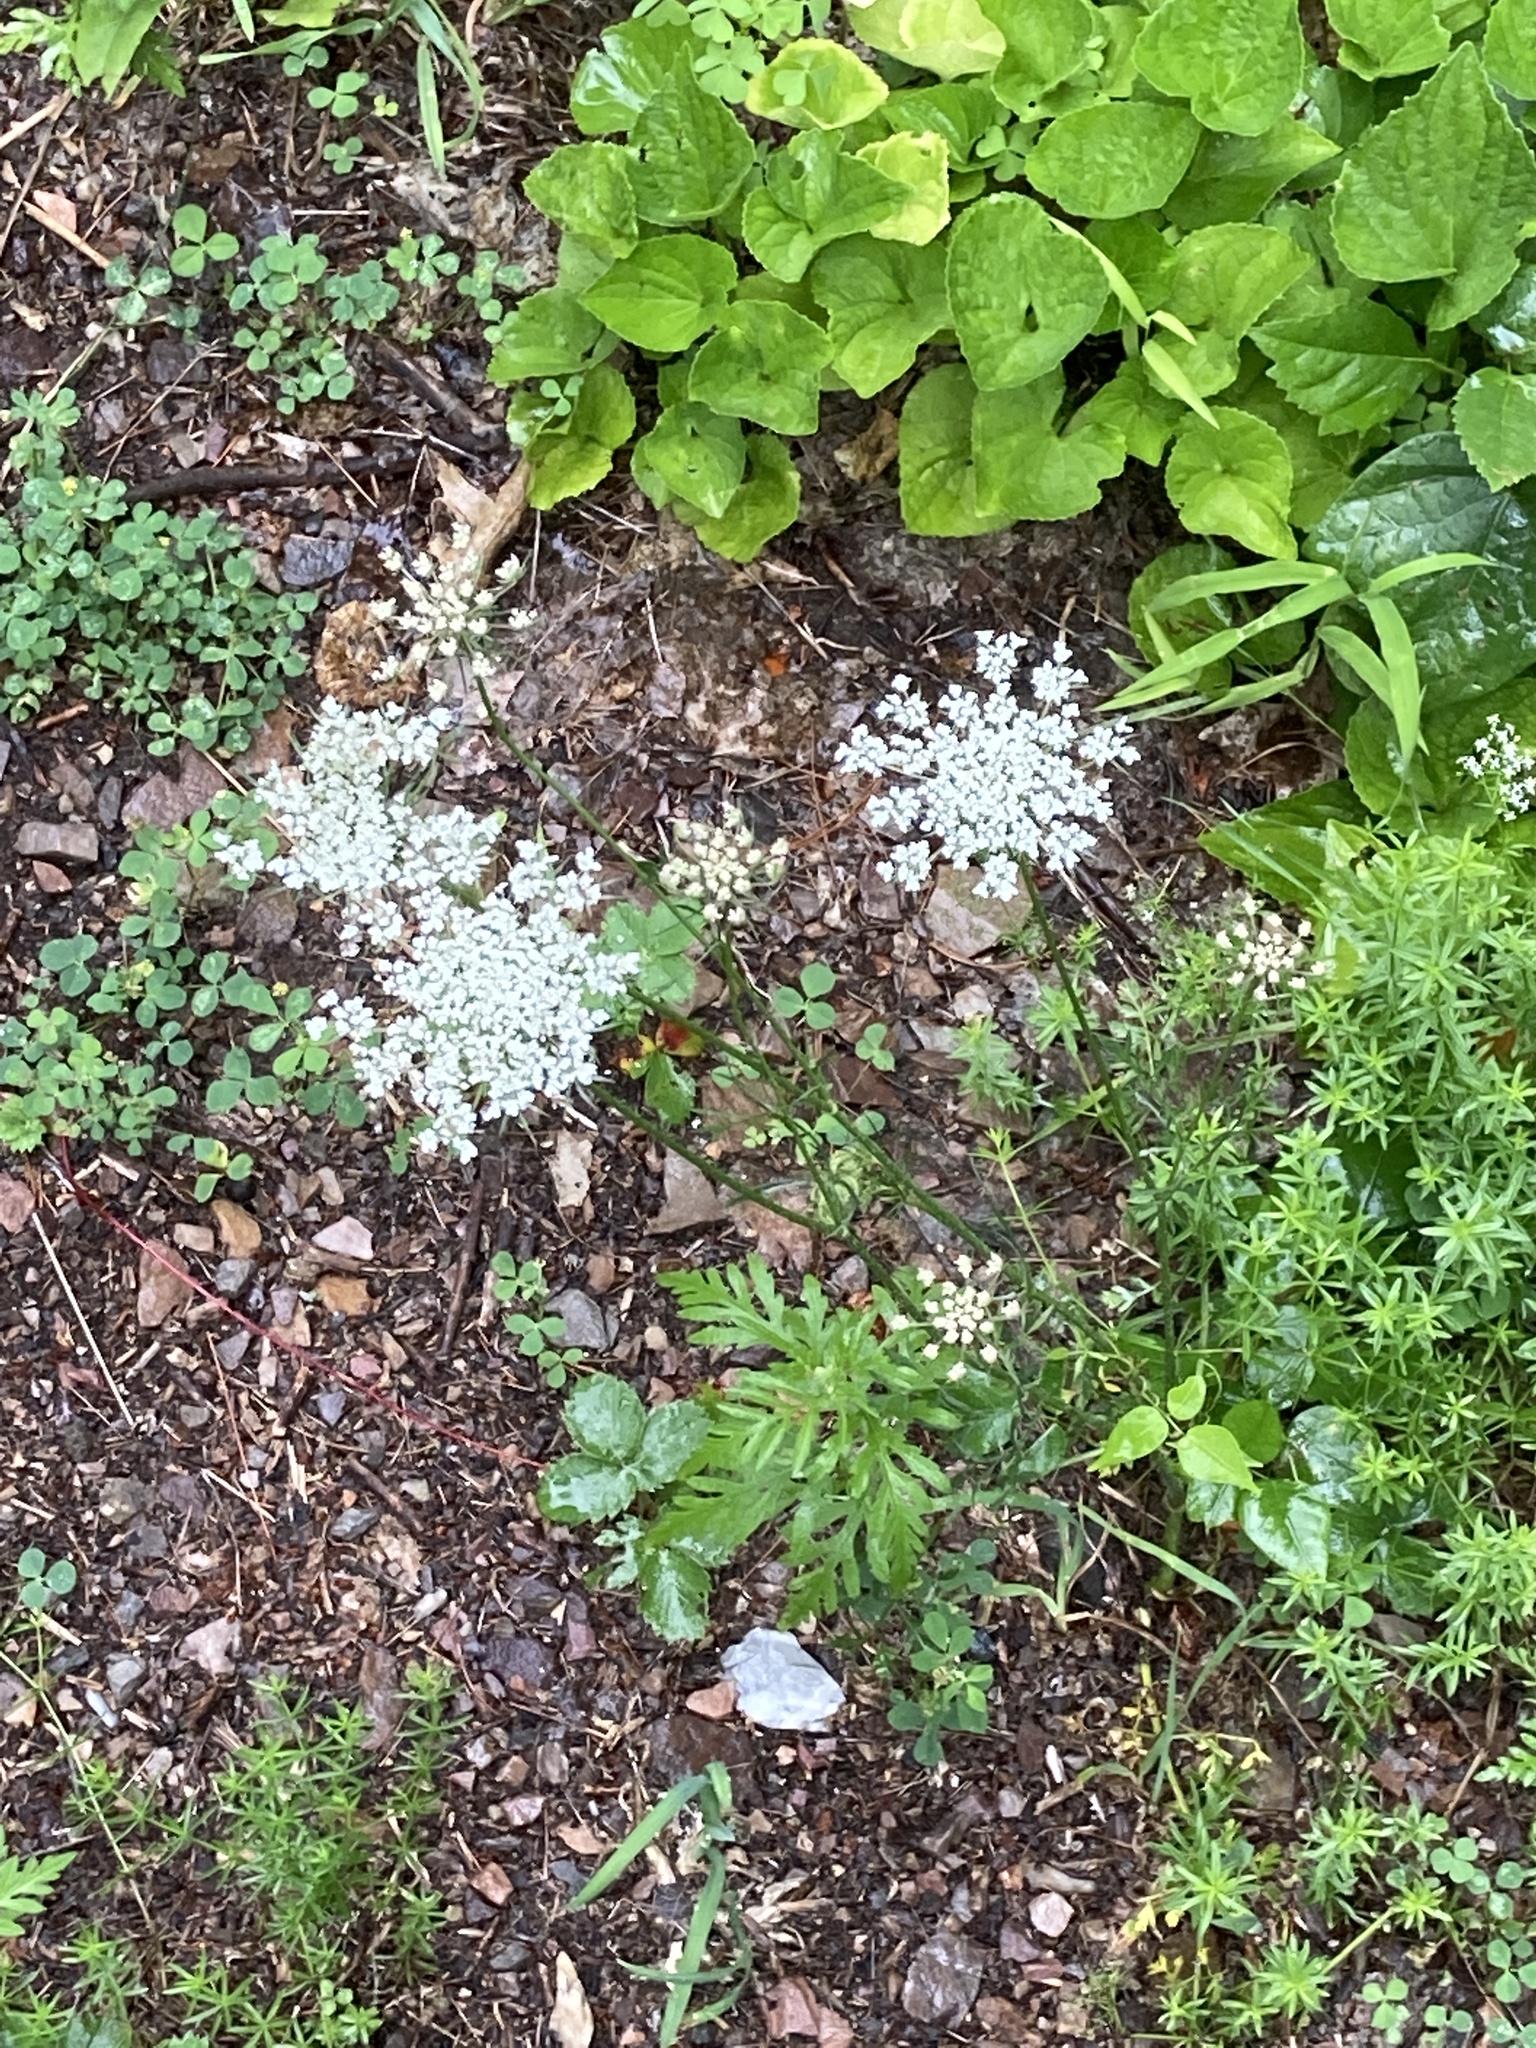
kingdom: Plantae
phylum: Tracheophyta
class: Magnoliopsida
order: Apiales
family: Apiaceae
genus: Daucus
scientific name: Daucus carota
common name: Wild carrot
